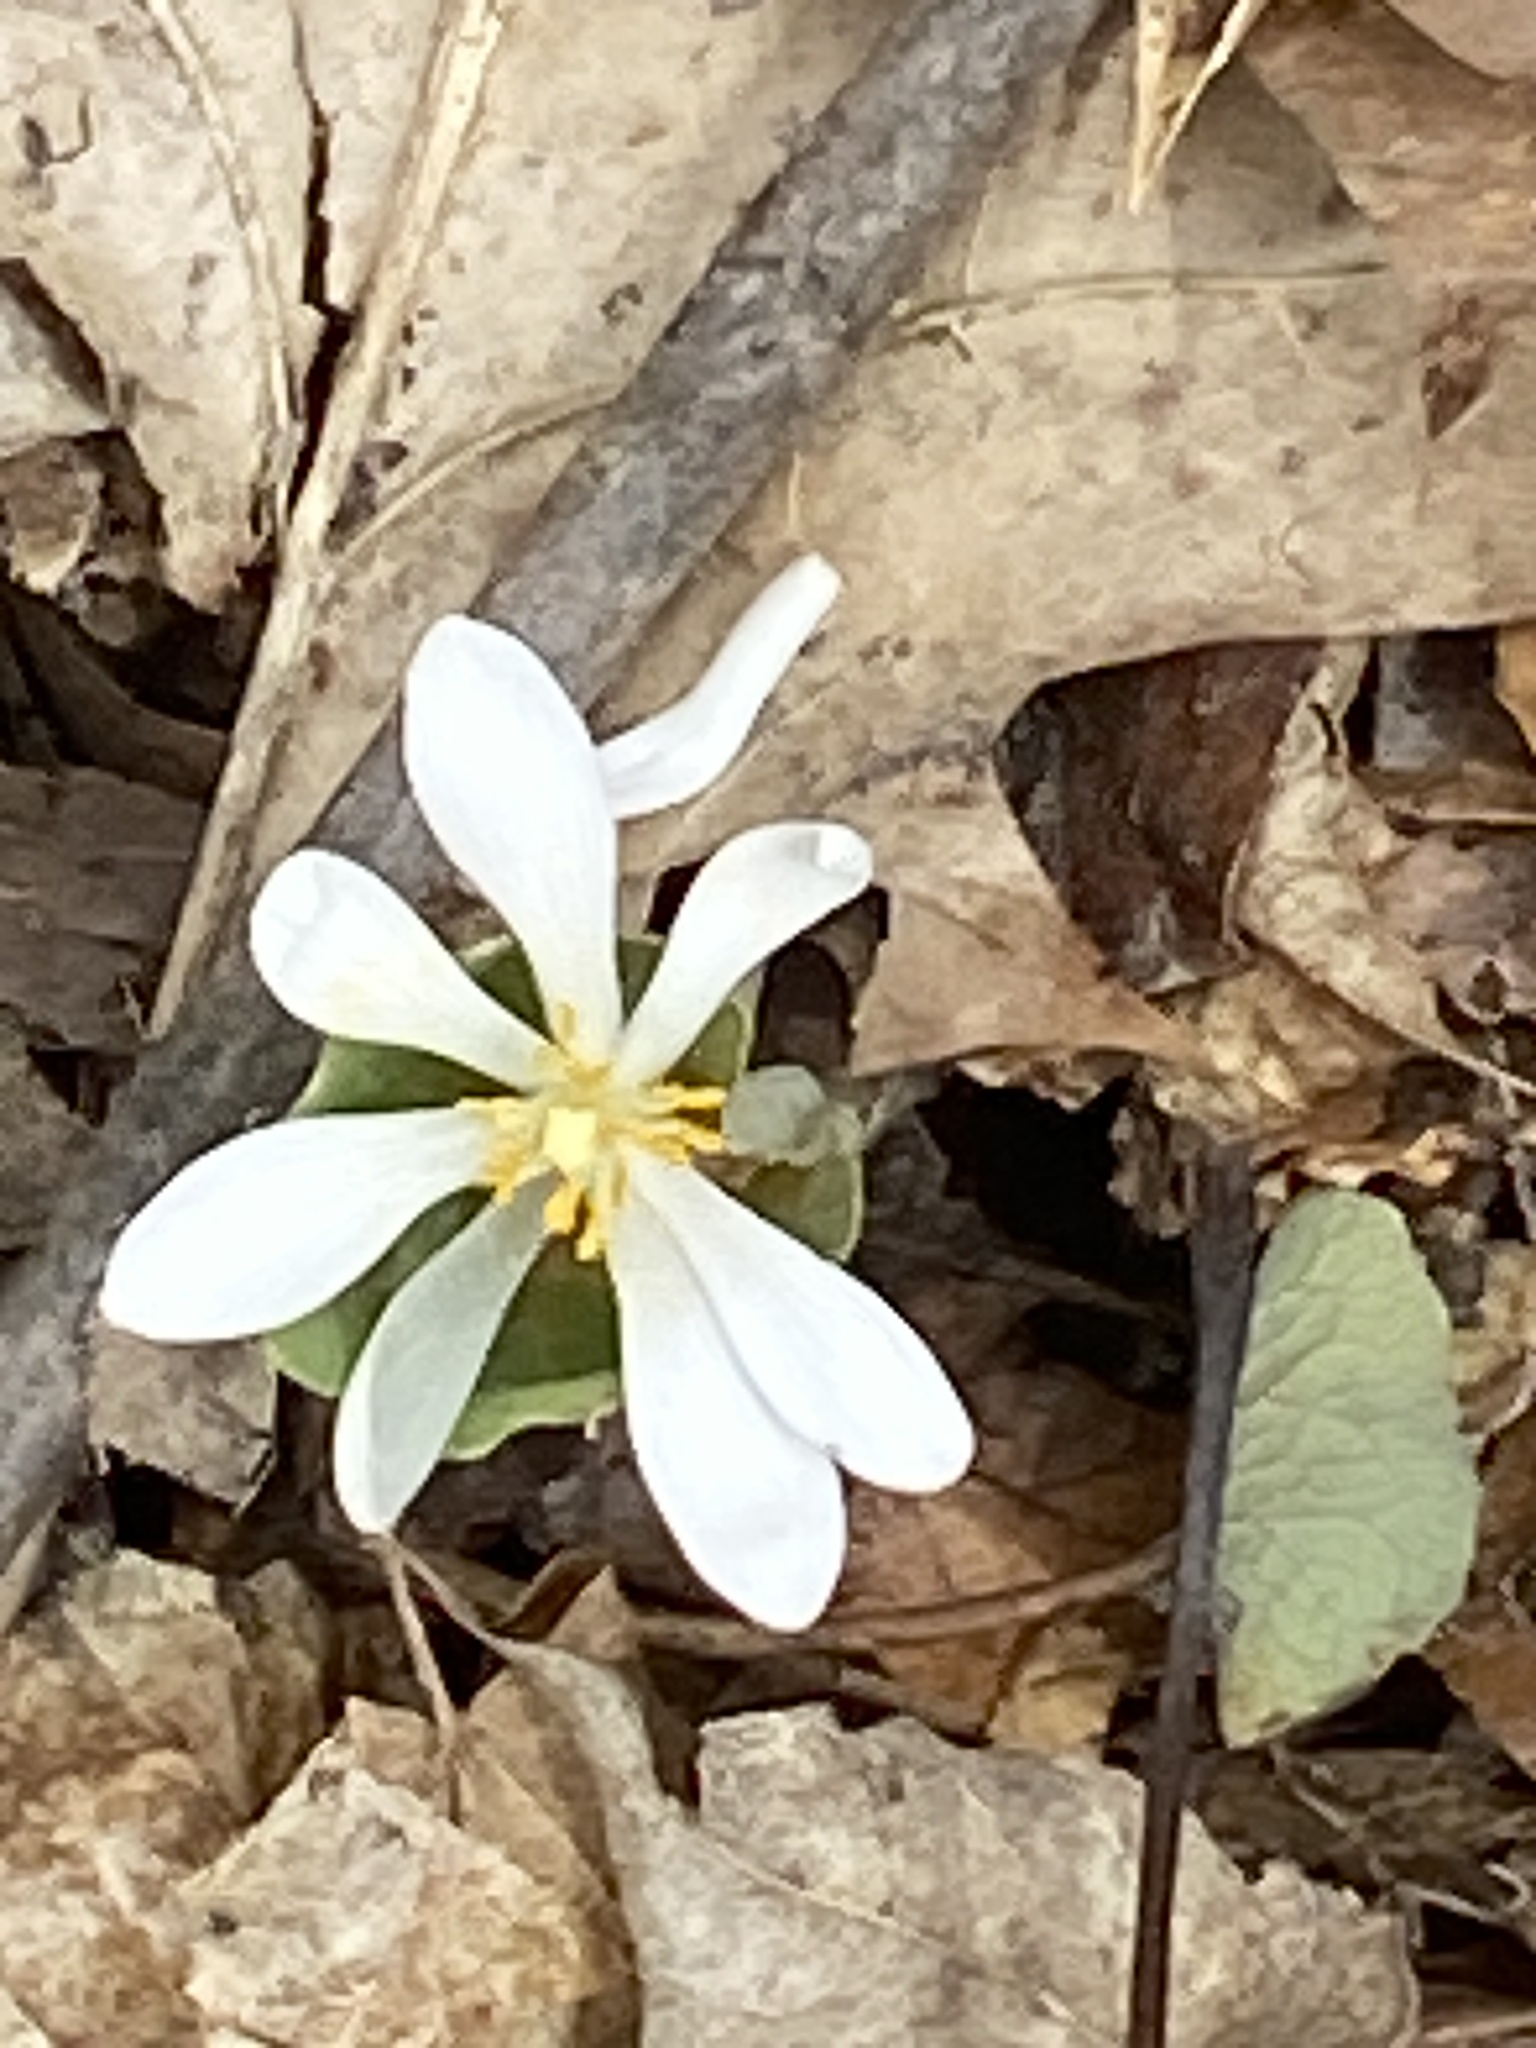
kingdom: Plantae
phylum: Tracheophyta
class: Magnoliopsida
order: Ranunculales
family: Papaveraceae
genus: Sanguinaria
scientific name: Sanguinaria canadensis
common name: Bloodroot
